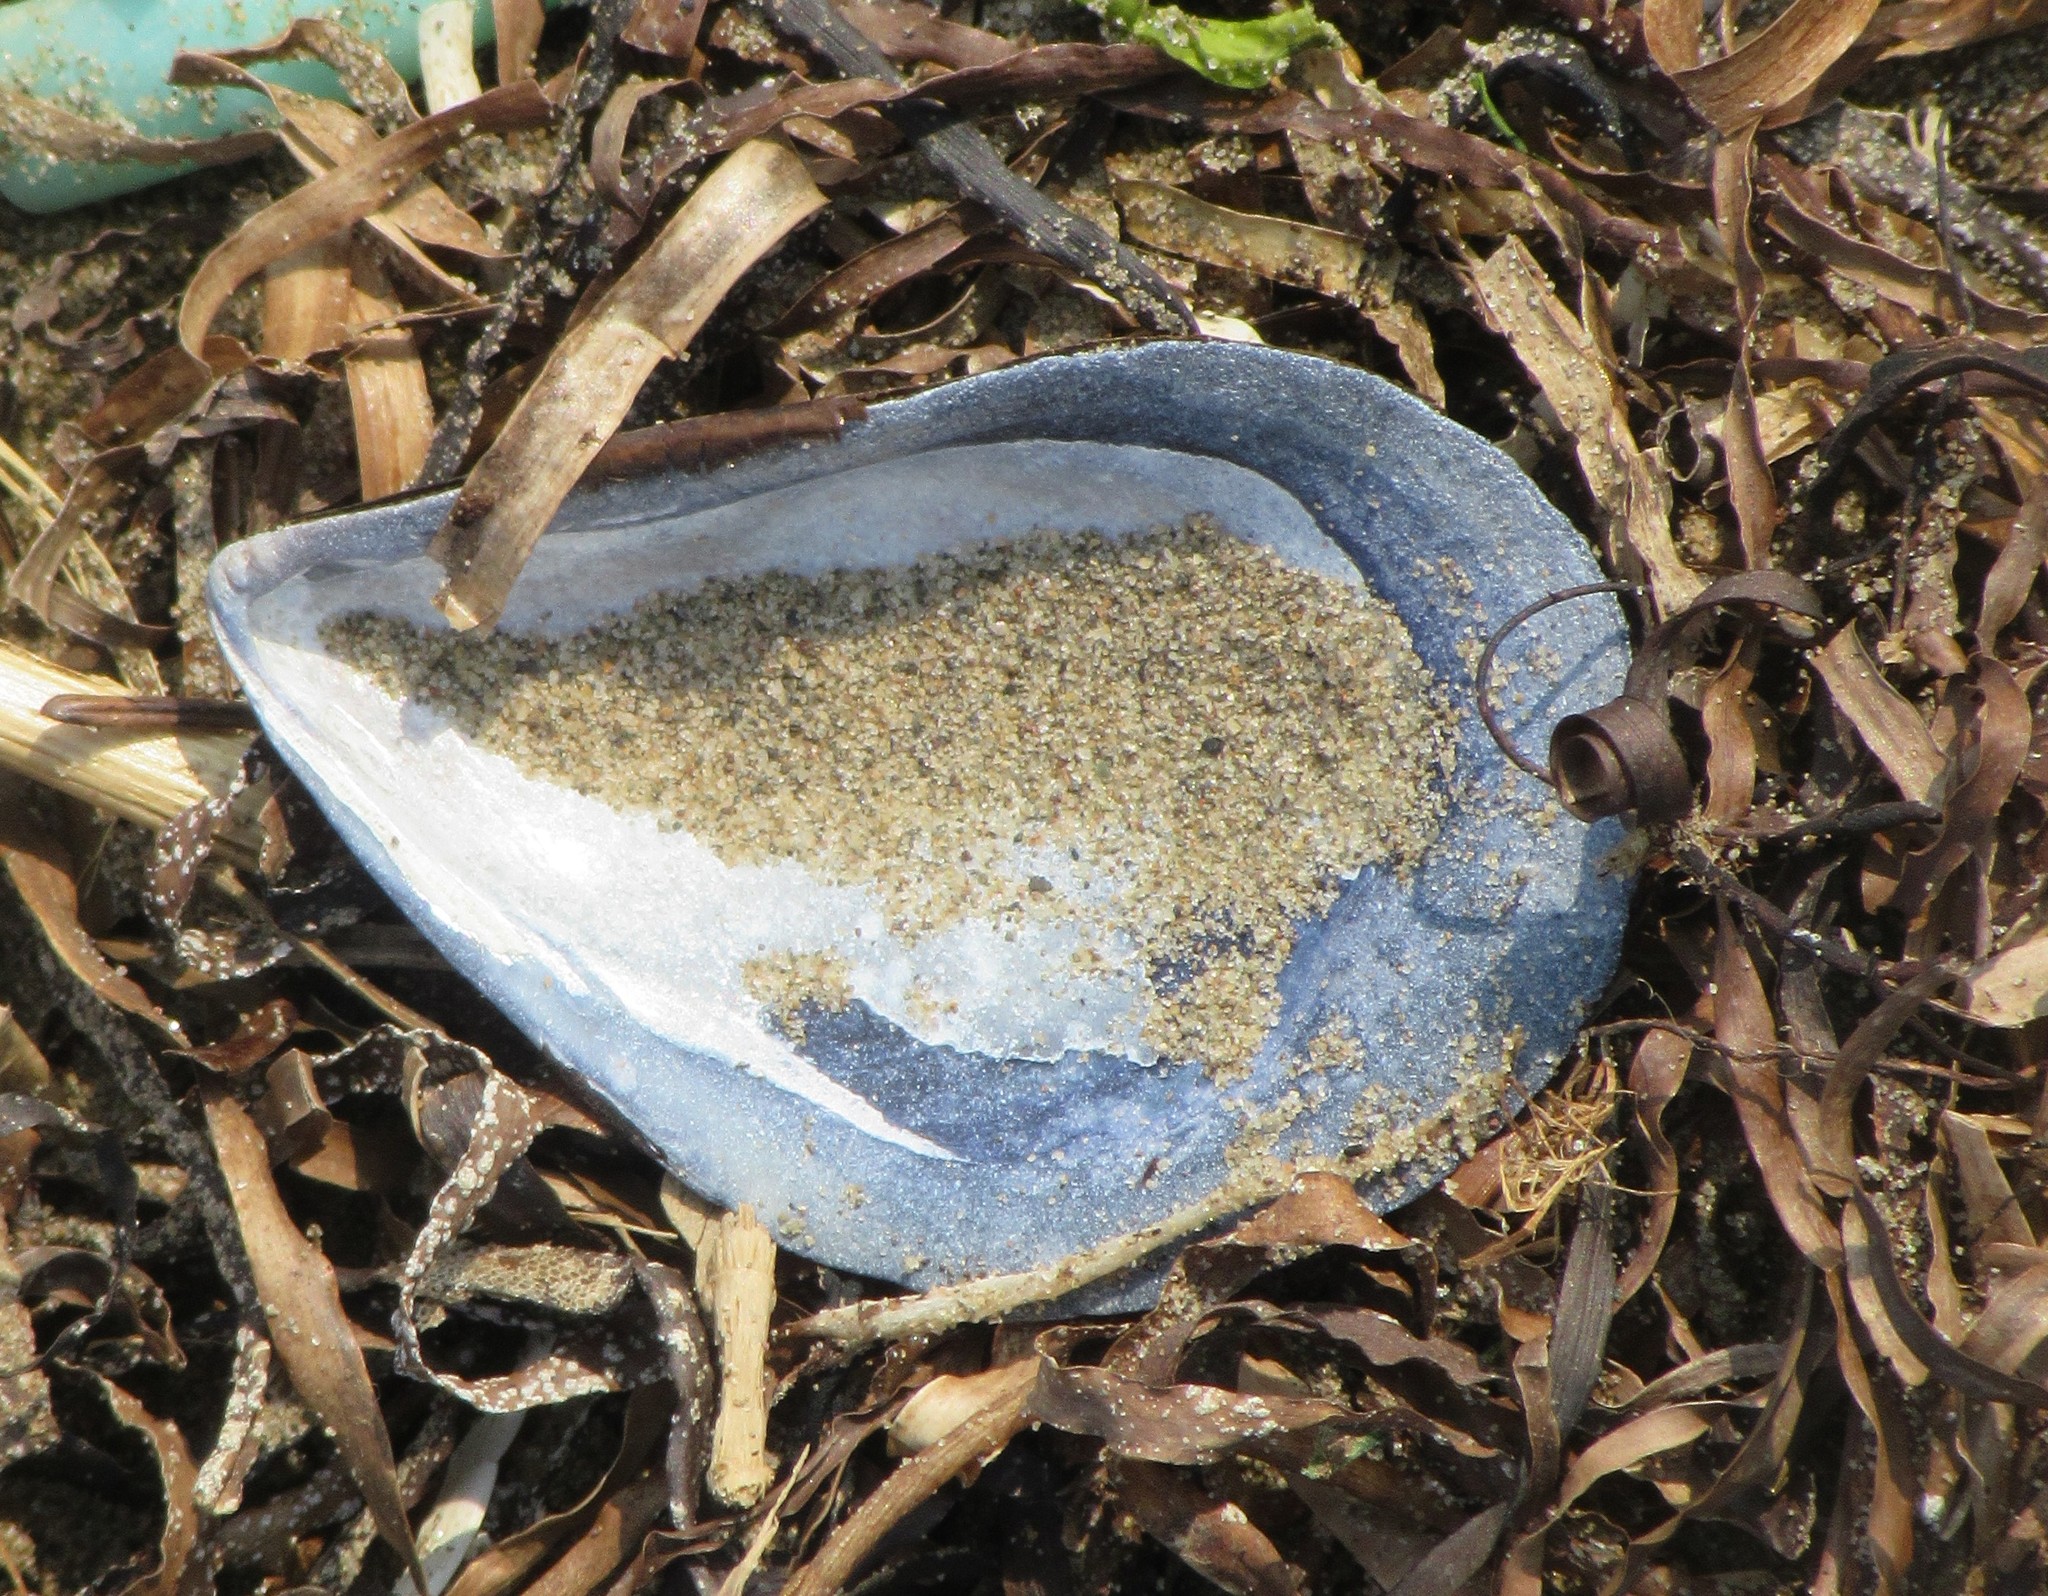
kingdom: Animalia
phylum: Mollusca
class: Bivalvia
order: Mytilida
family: Mytilidae
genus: Mytilus
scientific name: Mytilus edulis
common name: Blue mussel
